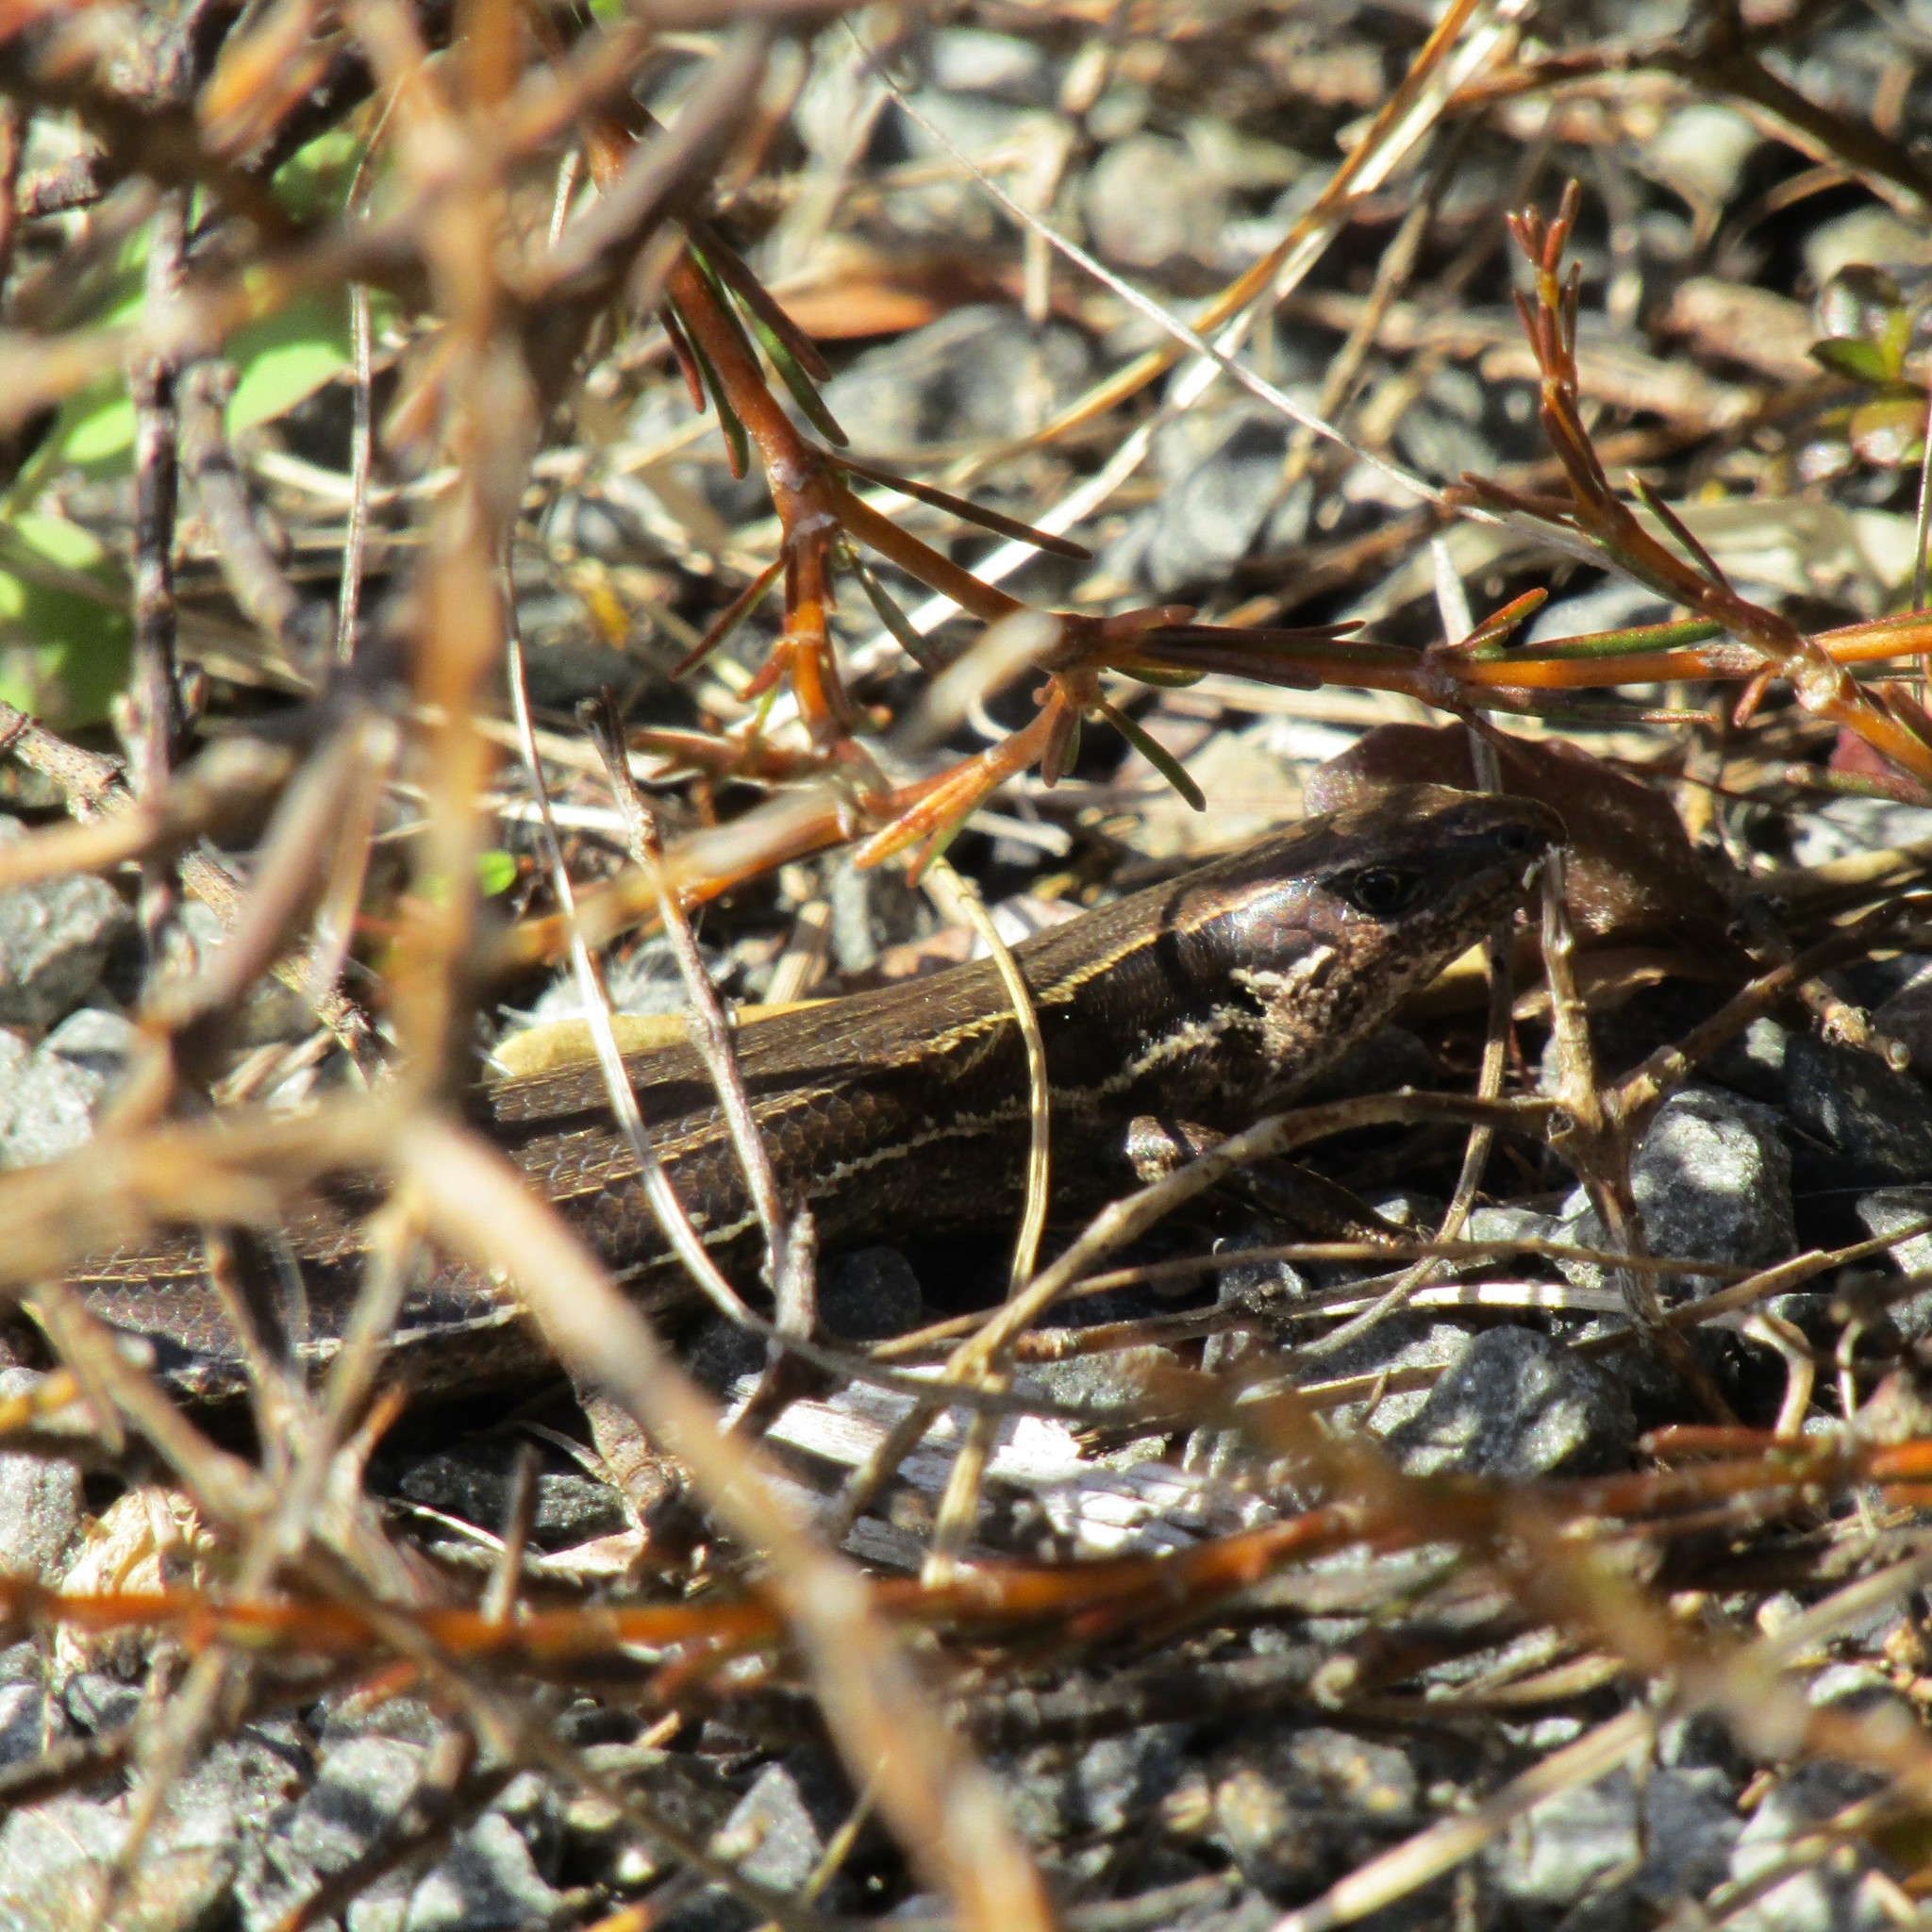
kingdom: Animalia
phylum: Chordata
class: Squamata
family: Scincidae
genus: Oligosoma
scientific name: Oligosoma polychroma
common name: Common new zealand skink
